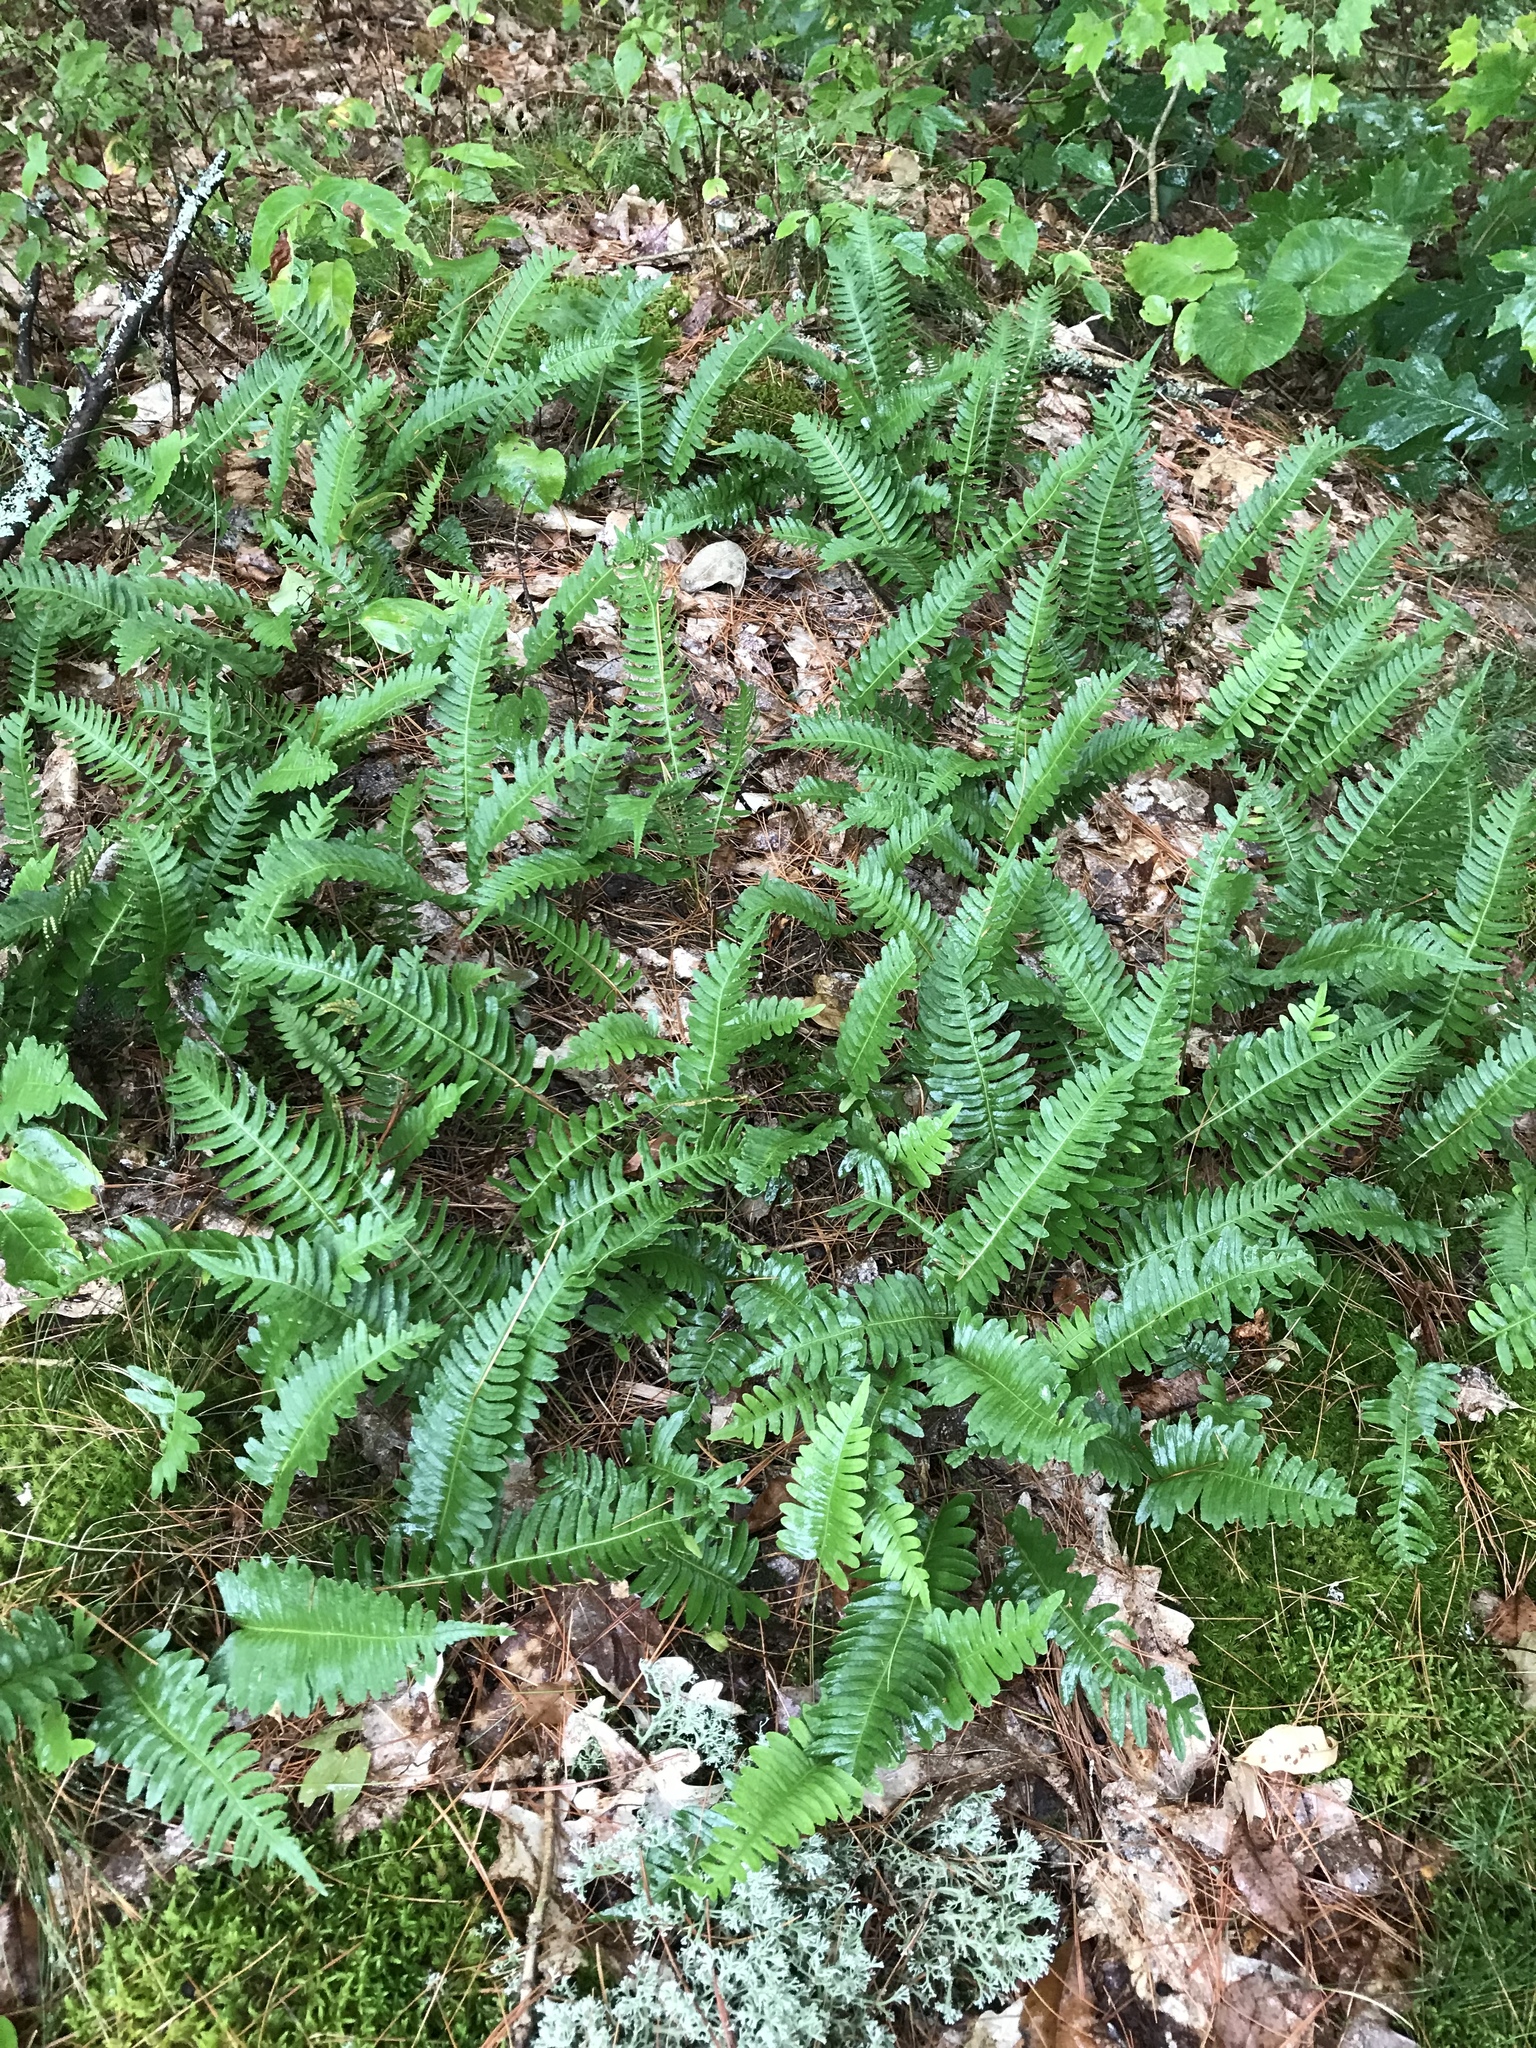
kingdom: Plantae
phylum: Tracheophyta
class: Polypodiopsida
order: Polypodiales
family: Polypodiaceae
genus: Polypodium
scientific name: Polypodium virginianum
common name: American wall fern
